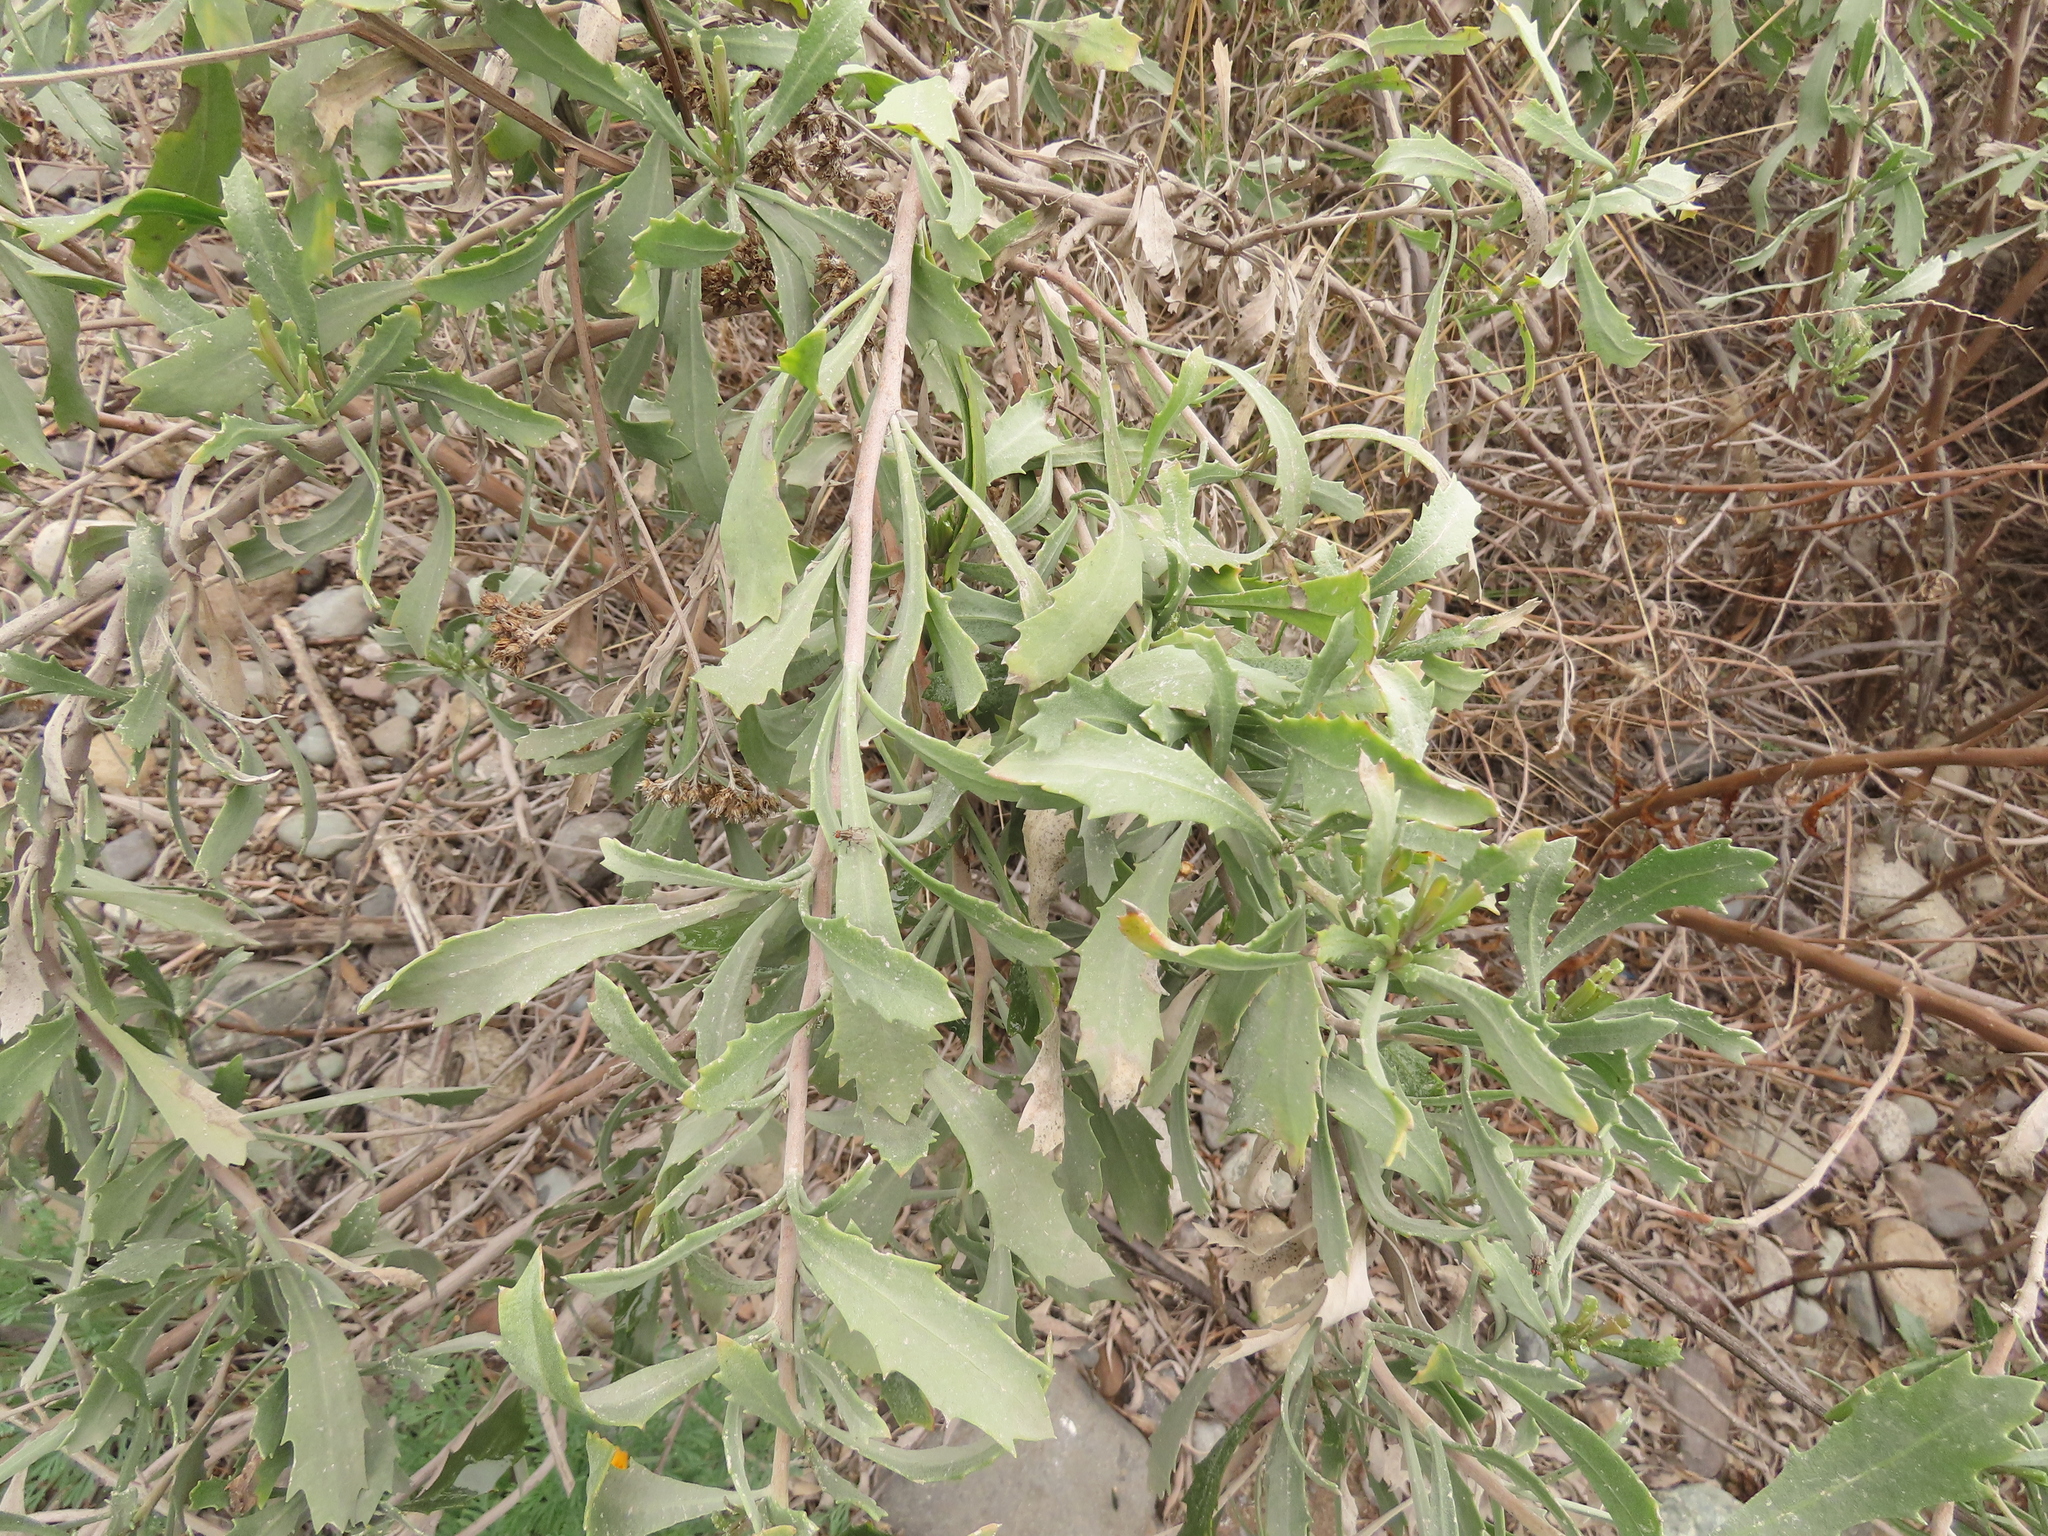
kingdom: Plantae
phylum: Tracheophyta
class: Magnoliopsida
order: Asterales
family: Asteraceae
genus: Tessaria
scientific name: Tessaria absinthioides
